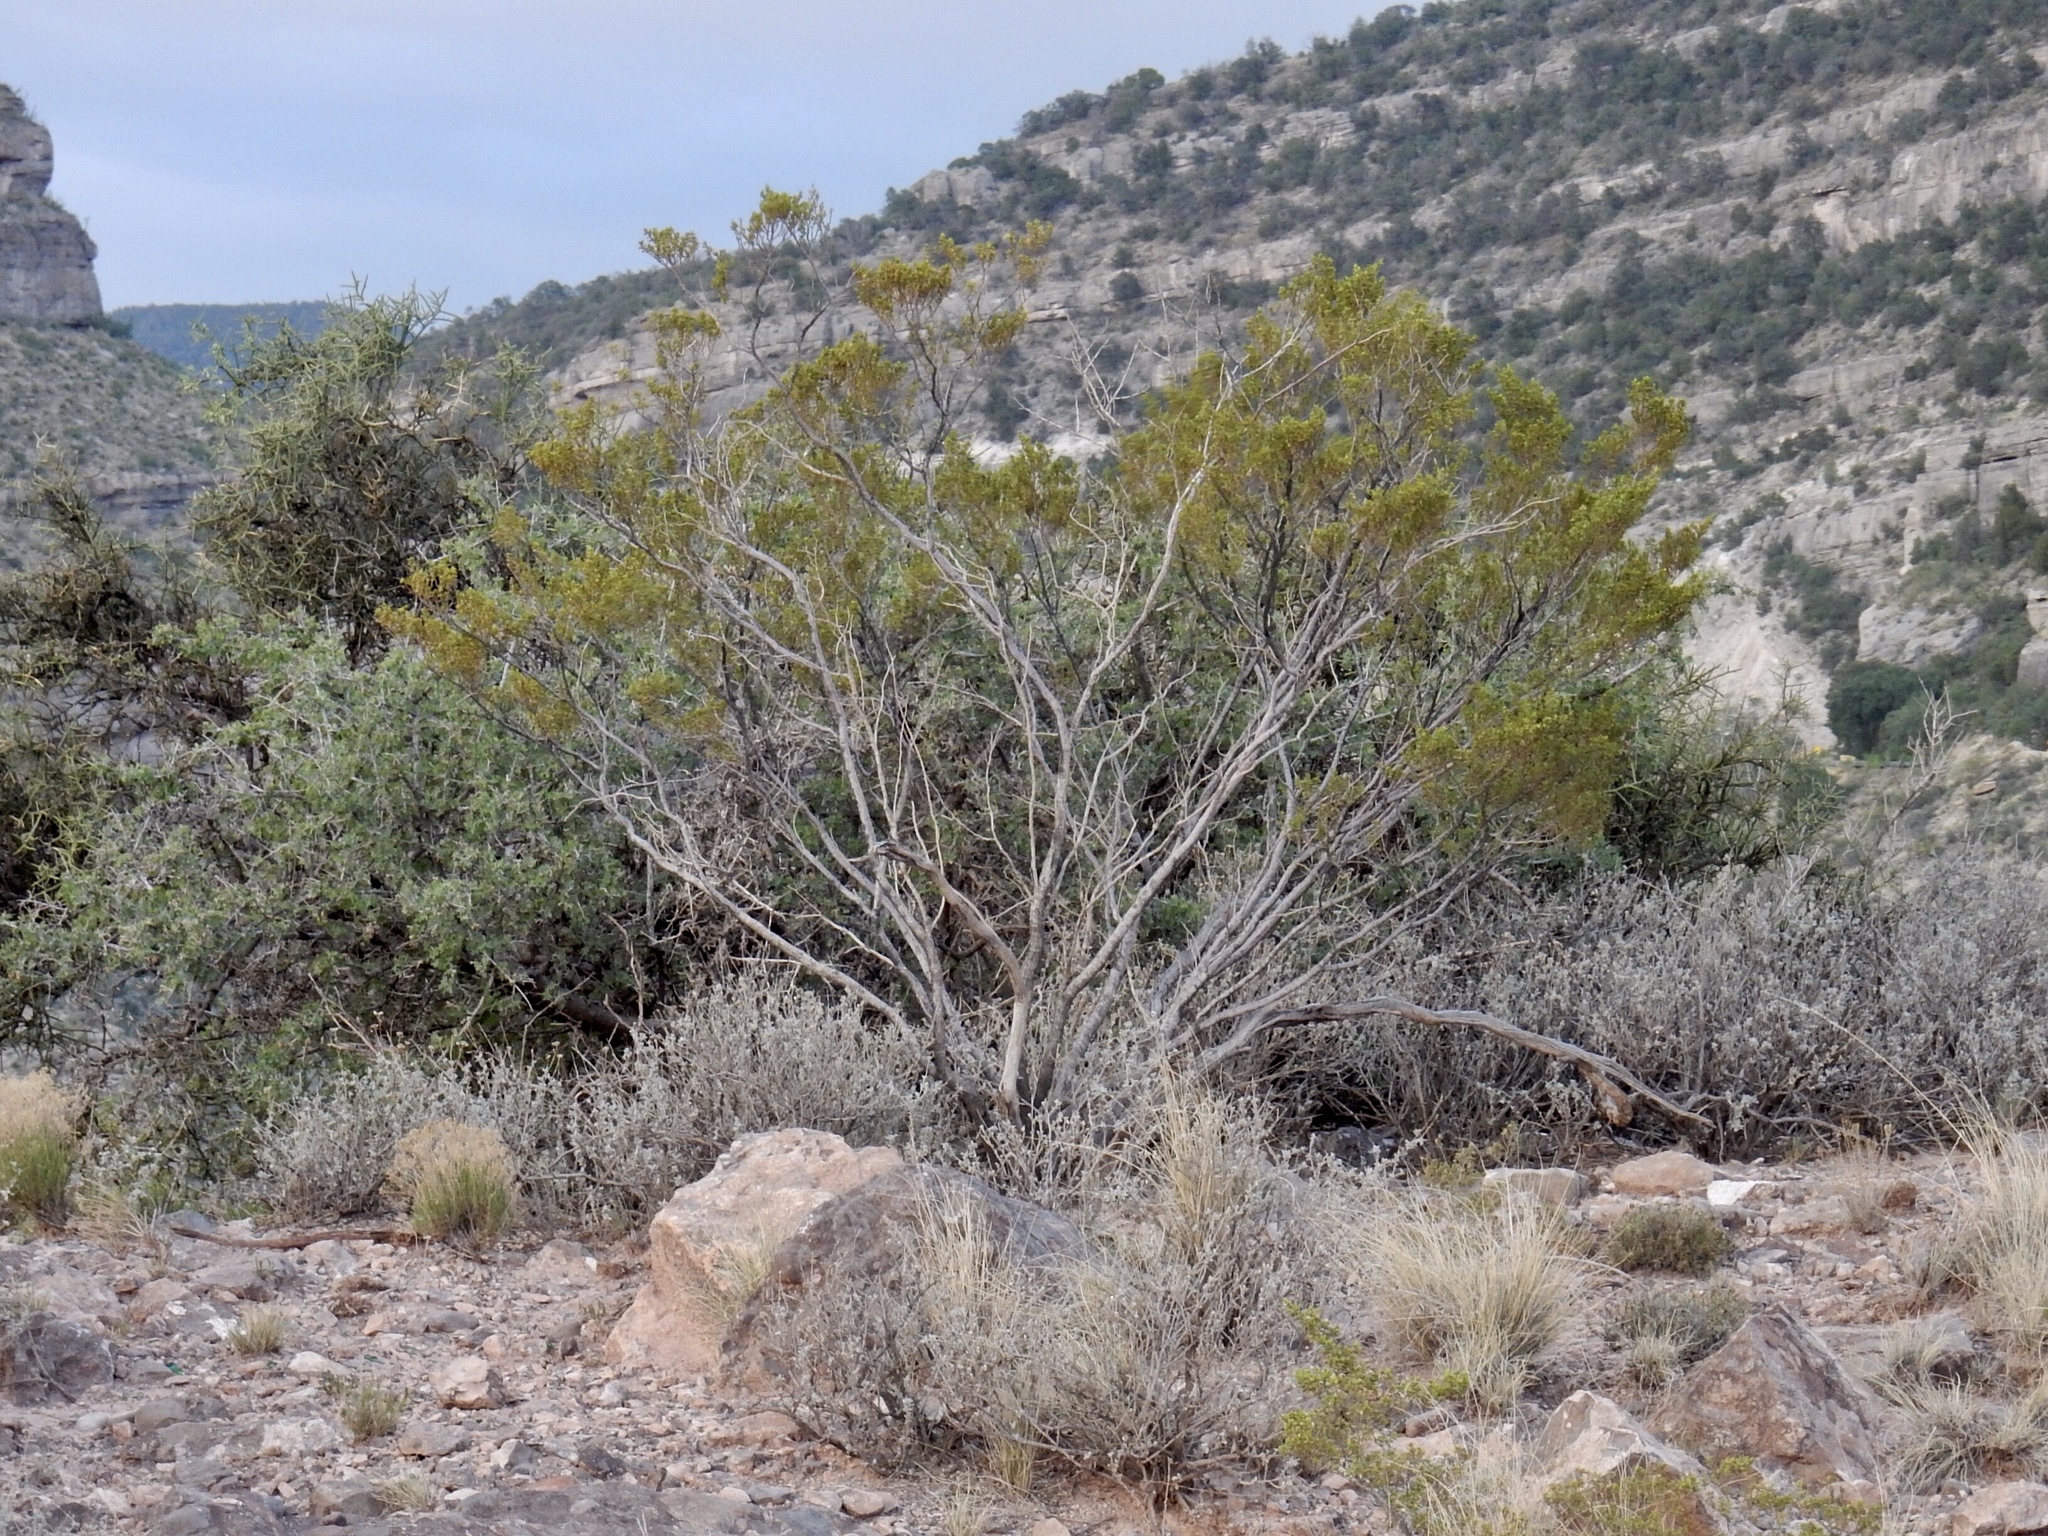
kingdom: Plantae
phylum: Tracheophyta
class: Magnoliopsida
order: Zygophyllales
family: Zygophyllaceae
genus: Larrea
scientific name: Larrea tridentata
